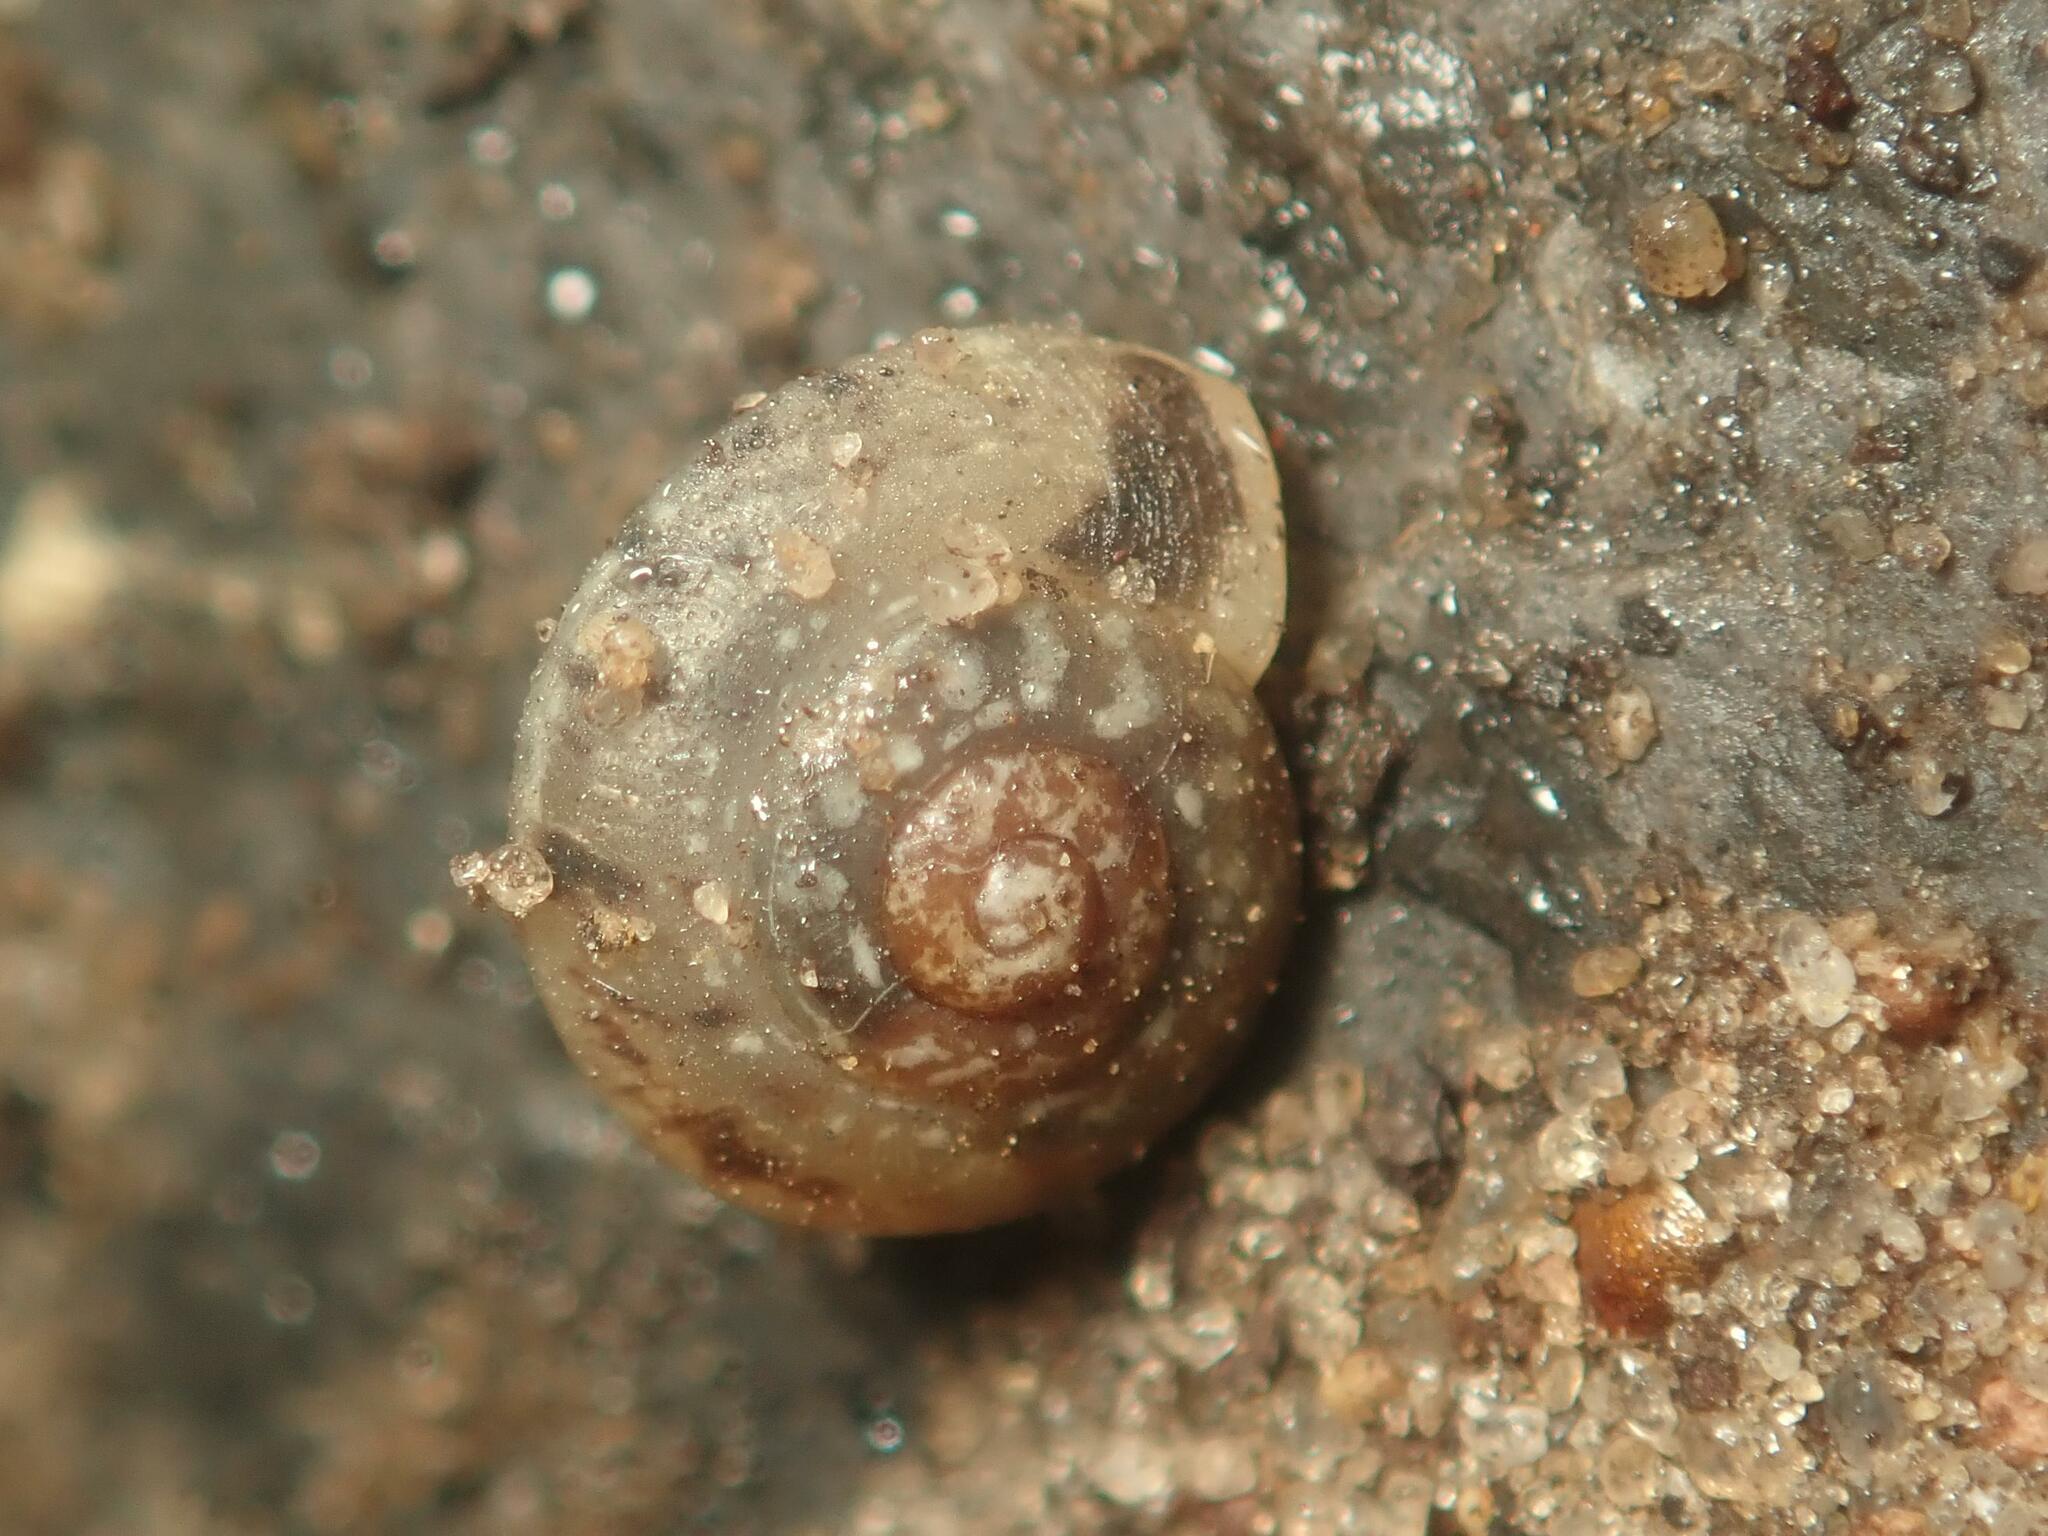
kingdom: Animalia
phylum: Mollusca
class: Gastropoda
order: Stylommatophora
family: Hygromiidae
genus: Hygromia
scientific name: Hygromia cinctella
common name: Girdled snail
